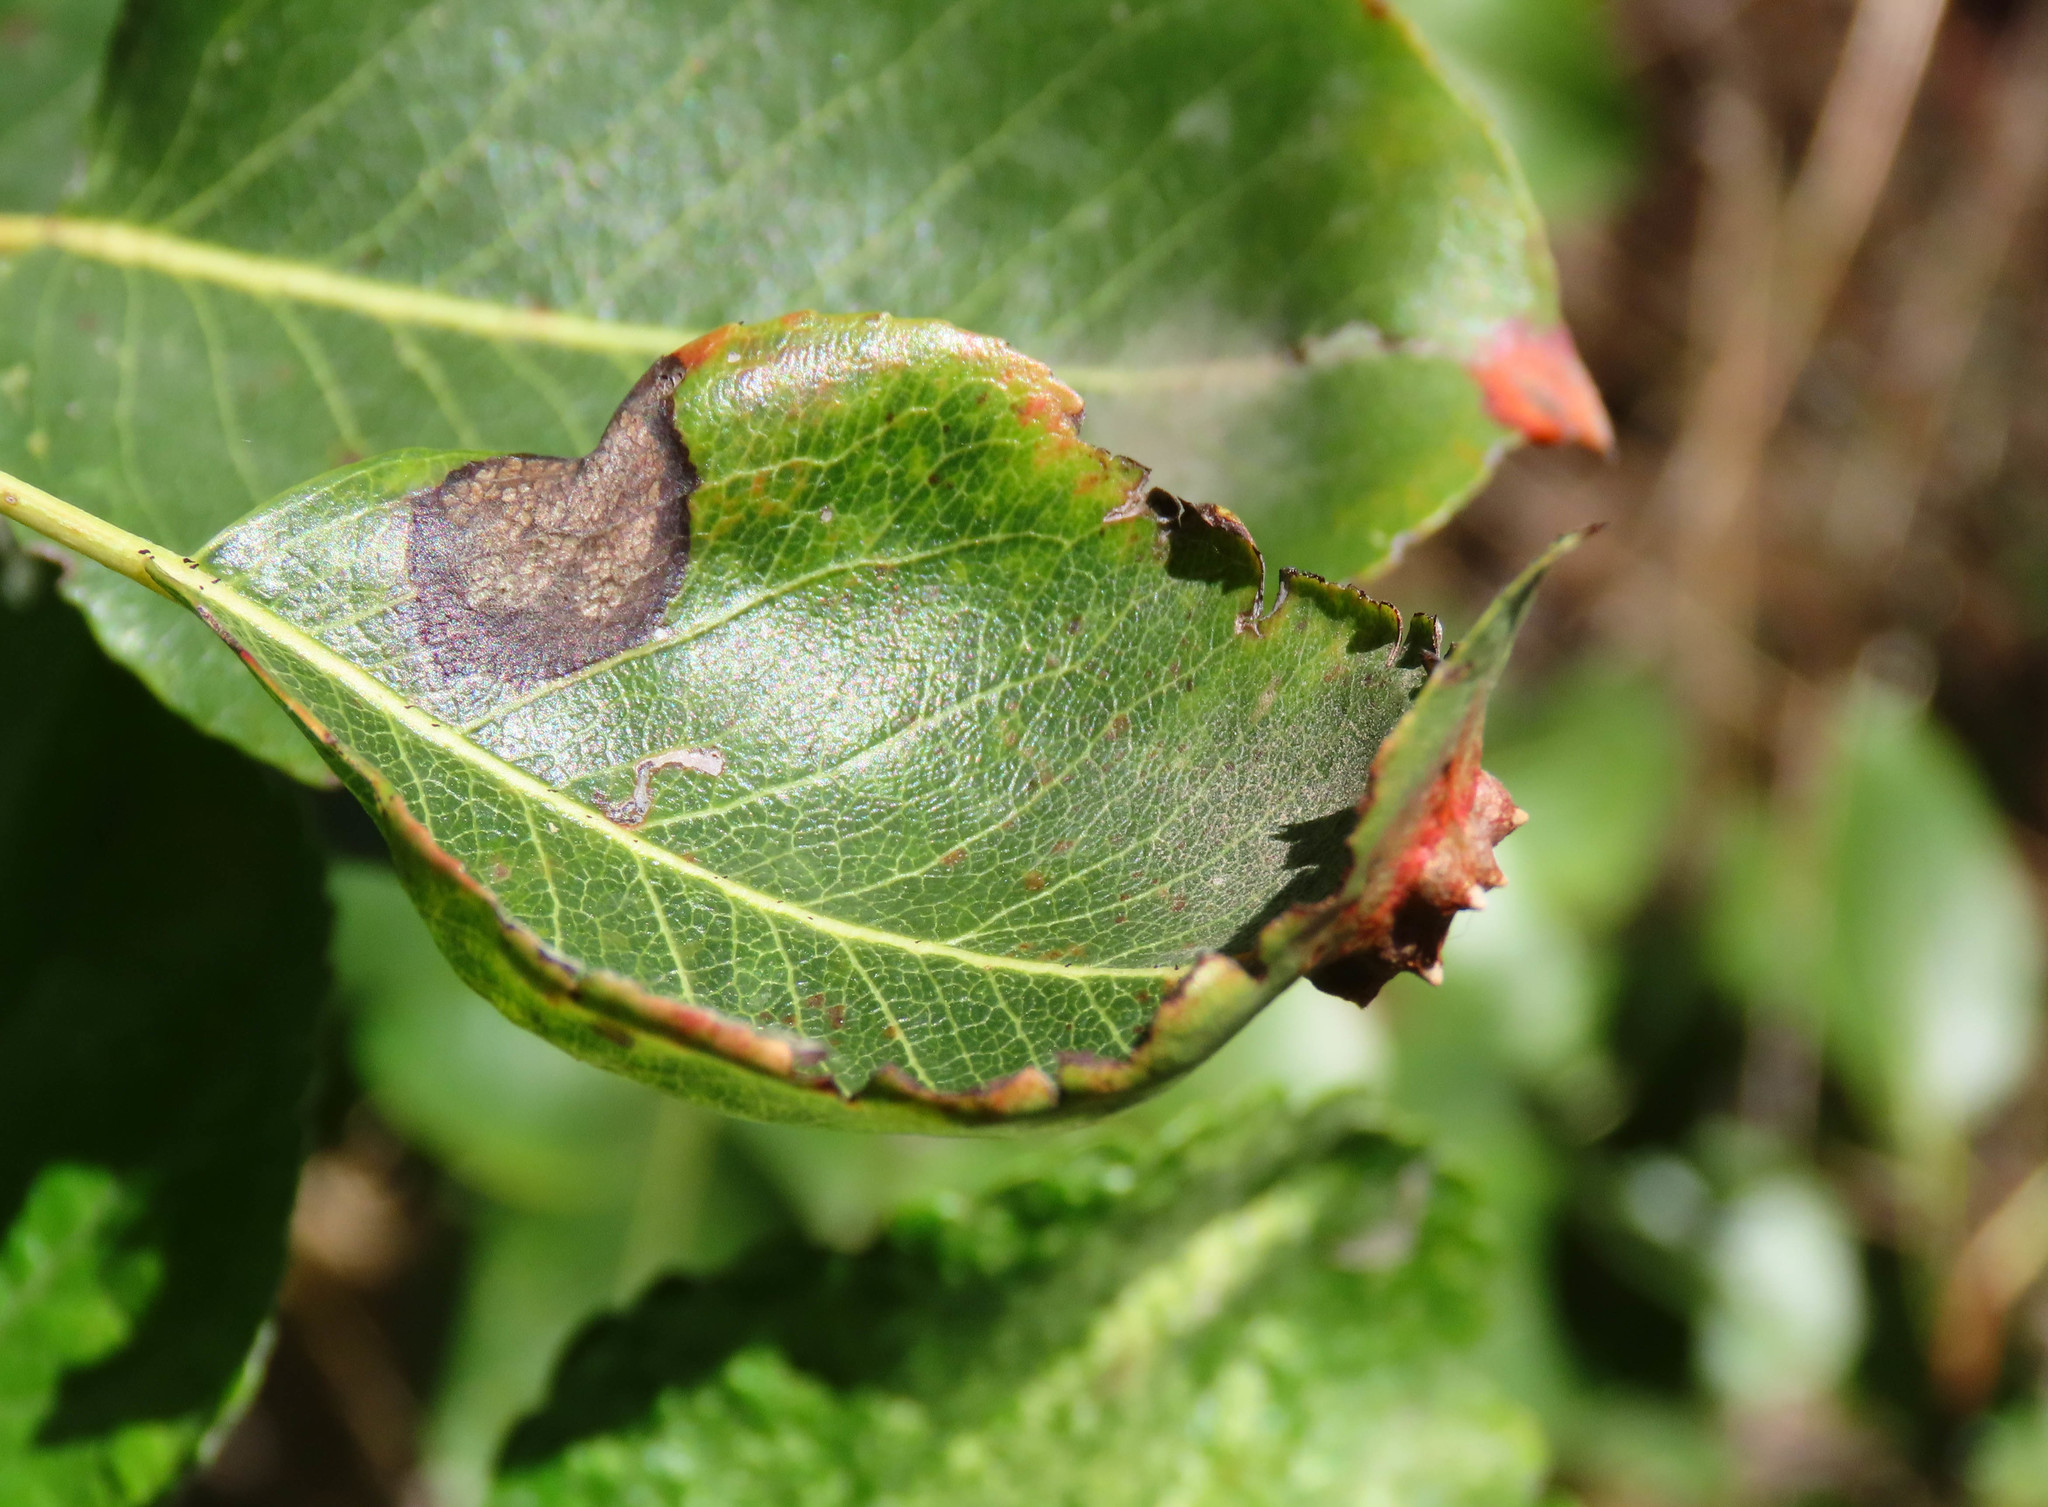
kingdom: Fungi
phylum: Basidiomycota
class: Pucciniomycetes
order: Pucciniales
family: Gymnosporangiaceae
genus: Gymnosporangium
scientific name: Gymnosporangium sabinae
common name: Pear trellis rust fungus
